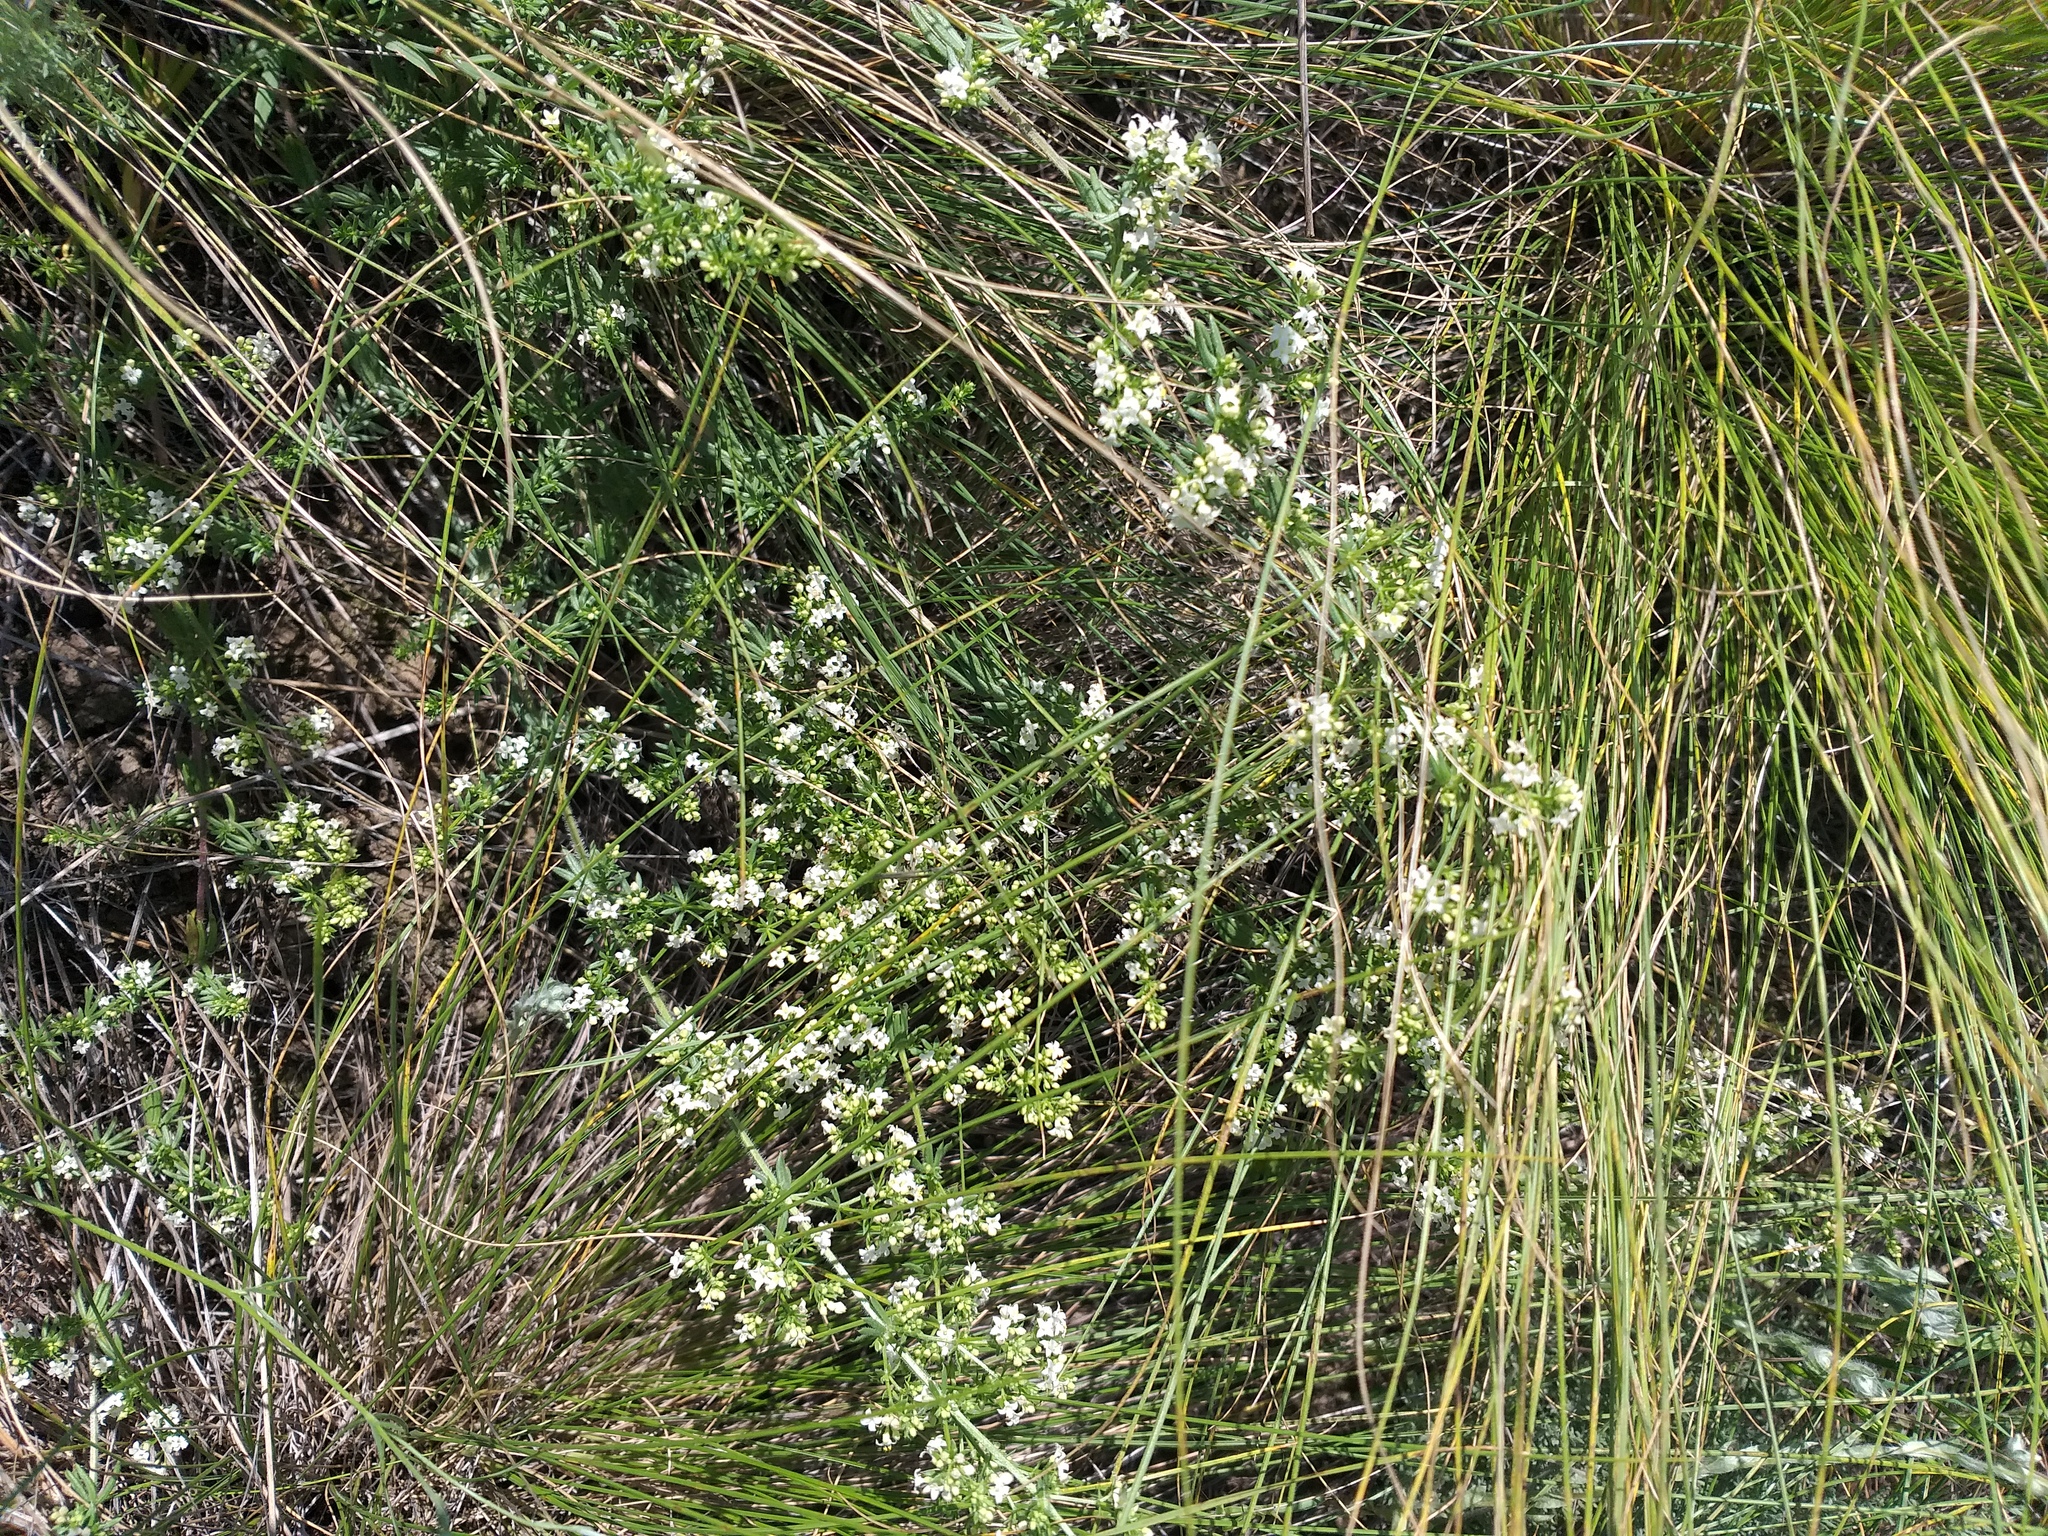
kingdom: Plantae
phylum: Tracheophyta
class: Magnoliopsida
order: Gentianales
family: Rubiaceae
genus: Galium
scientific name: Galium humifusum
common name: Spreading bedstraw
